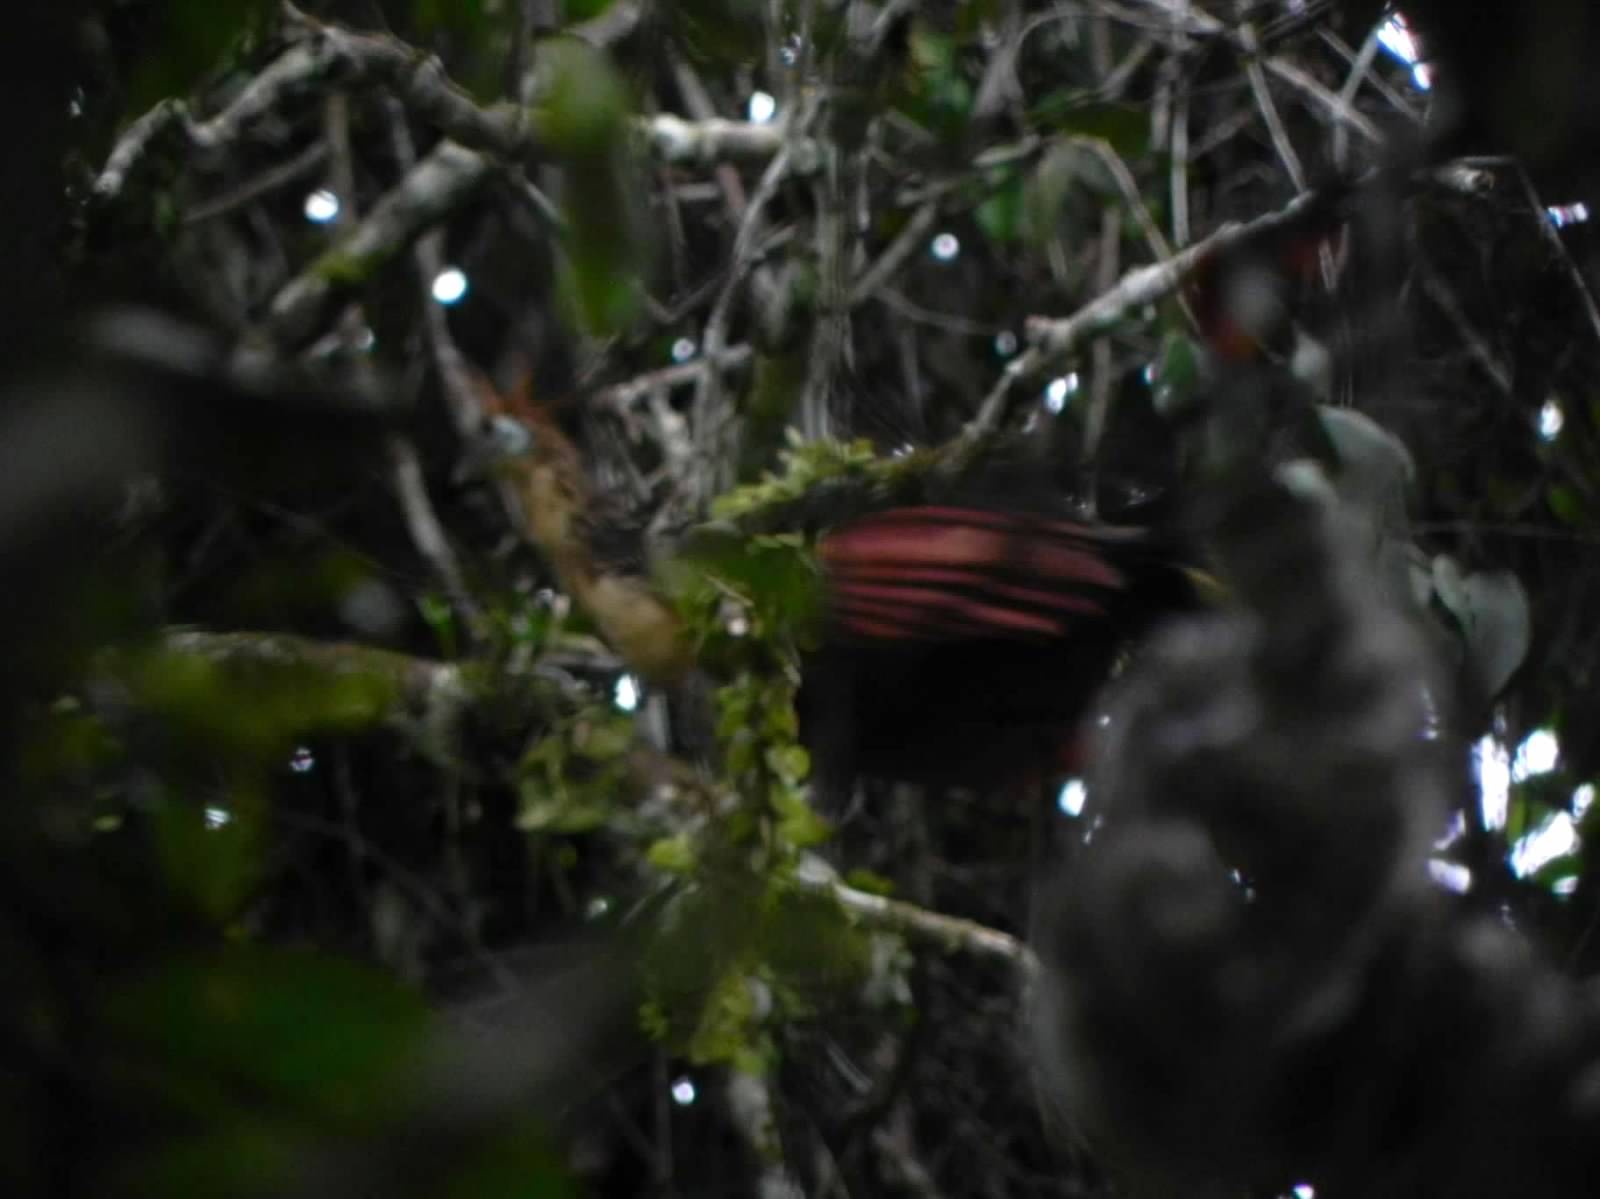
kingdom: Animalia
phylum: Chordata
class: Aves
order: Opisthocomiformes
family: Opisthocomidae
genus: Opisthocomus
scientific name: Opisthocomus hoazin
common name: Hoatzin
